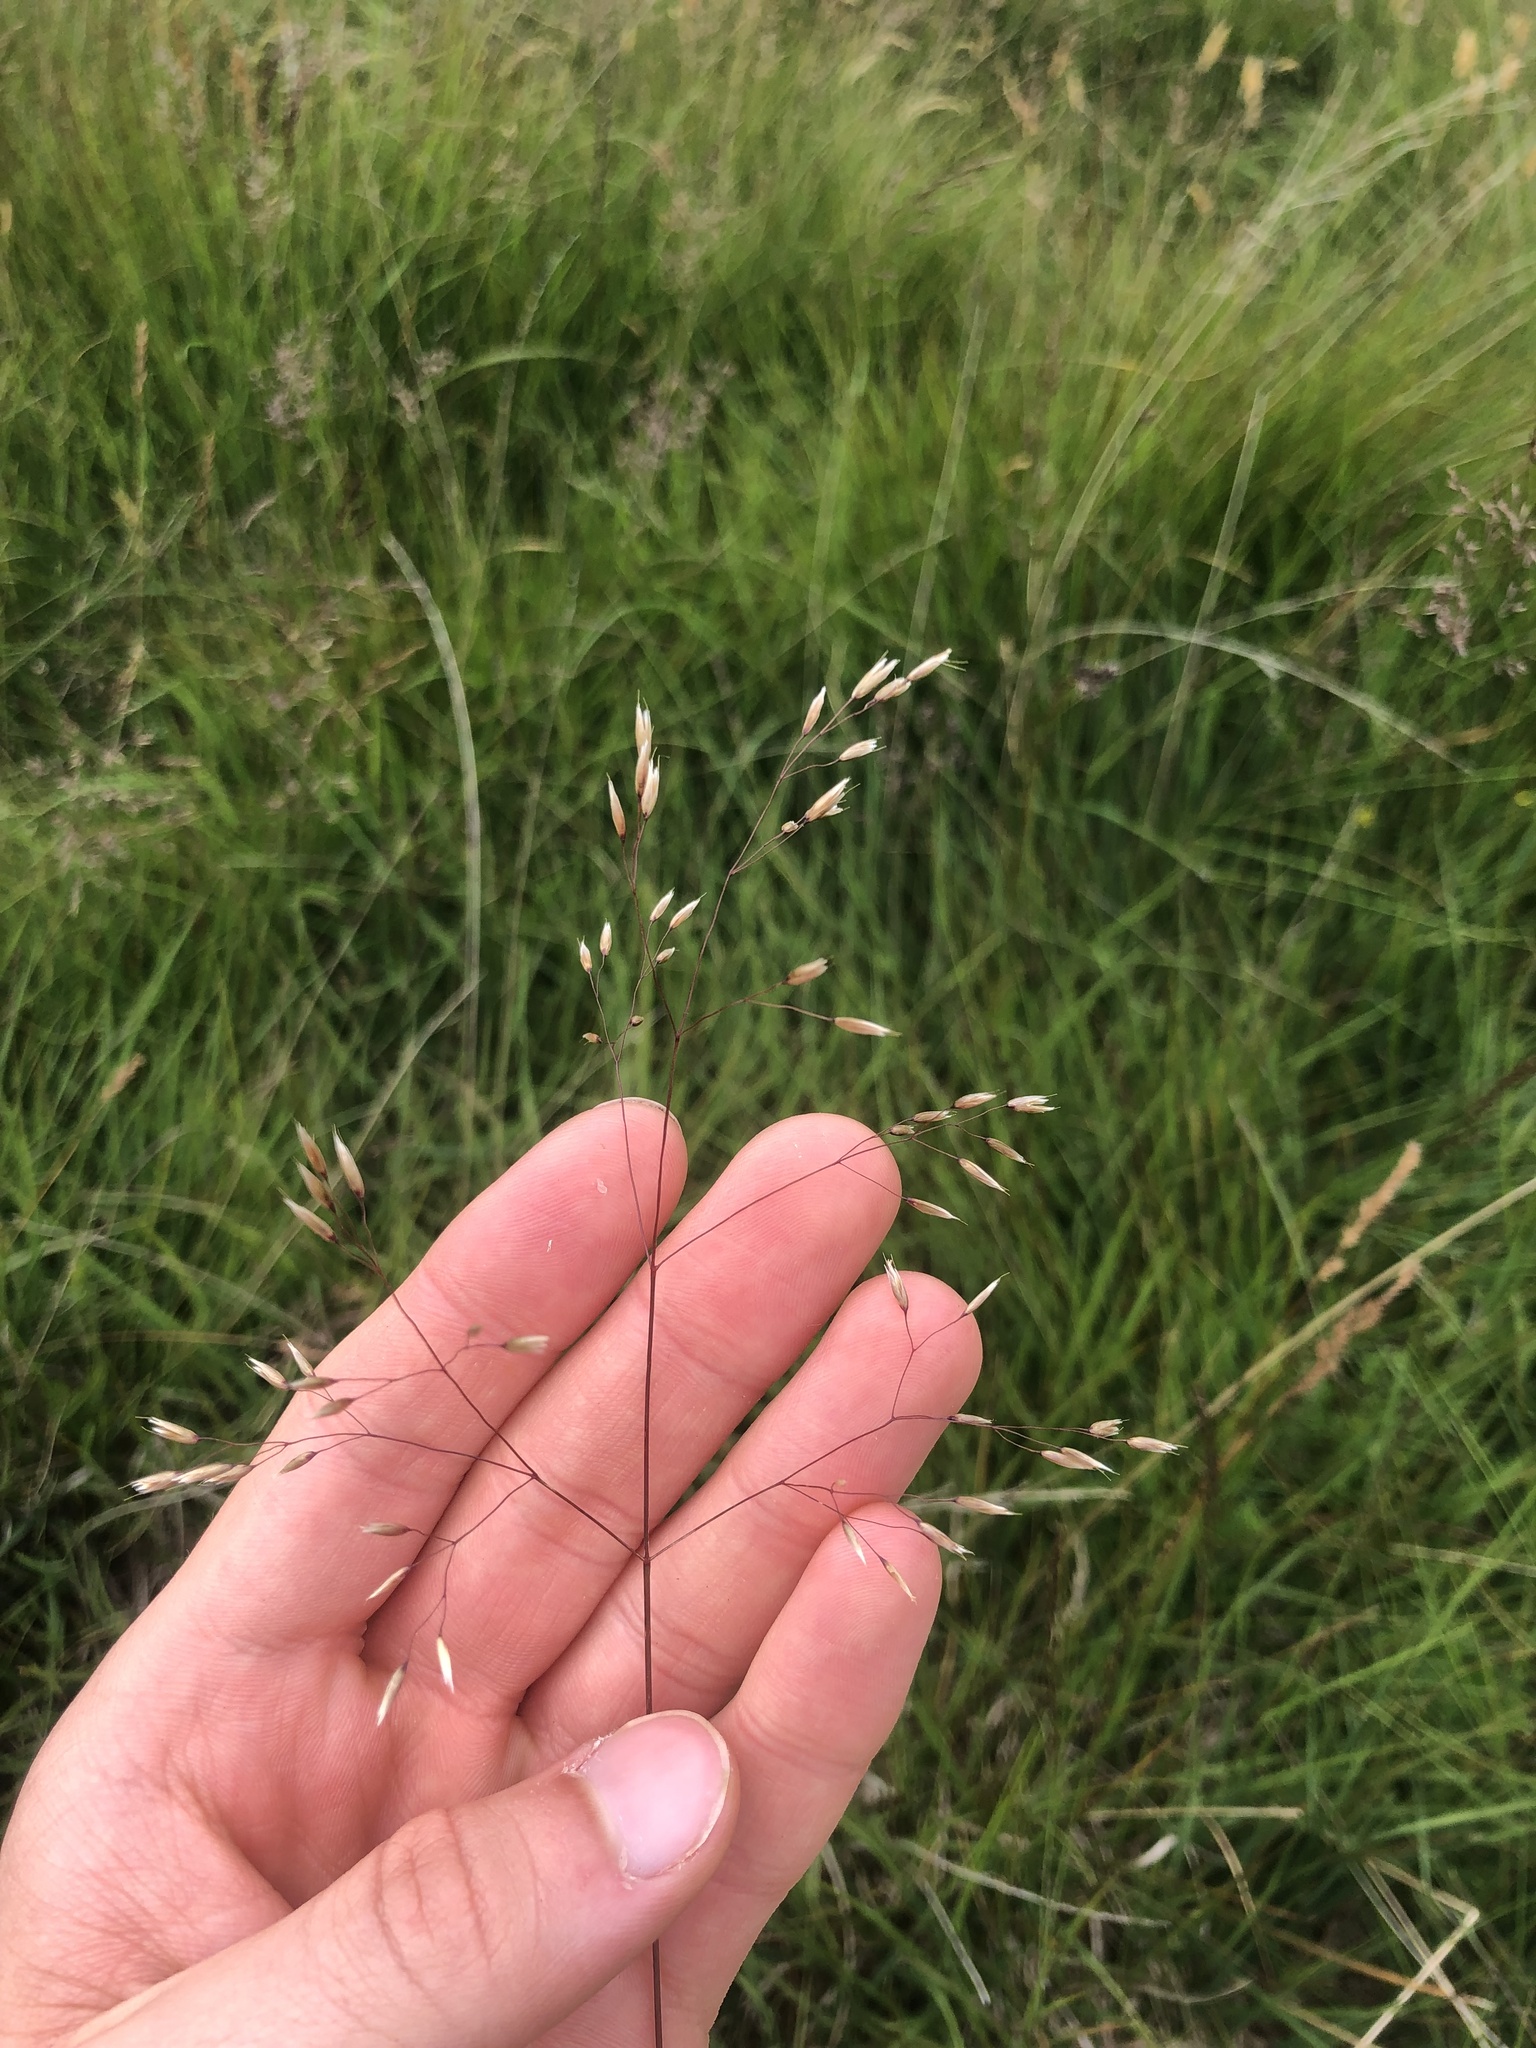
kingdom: Plantae
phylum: Tracheophyta
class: Liliopsida
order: Poales
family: Poaceae
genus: Avenella
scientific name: Avenella flexuosa
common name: Wavy hairgrass
